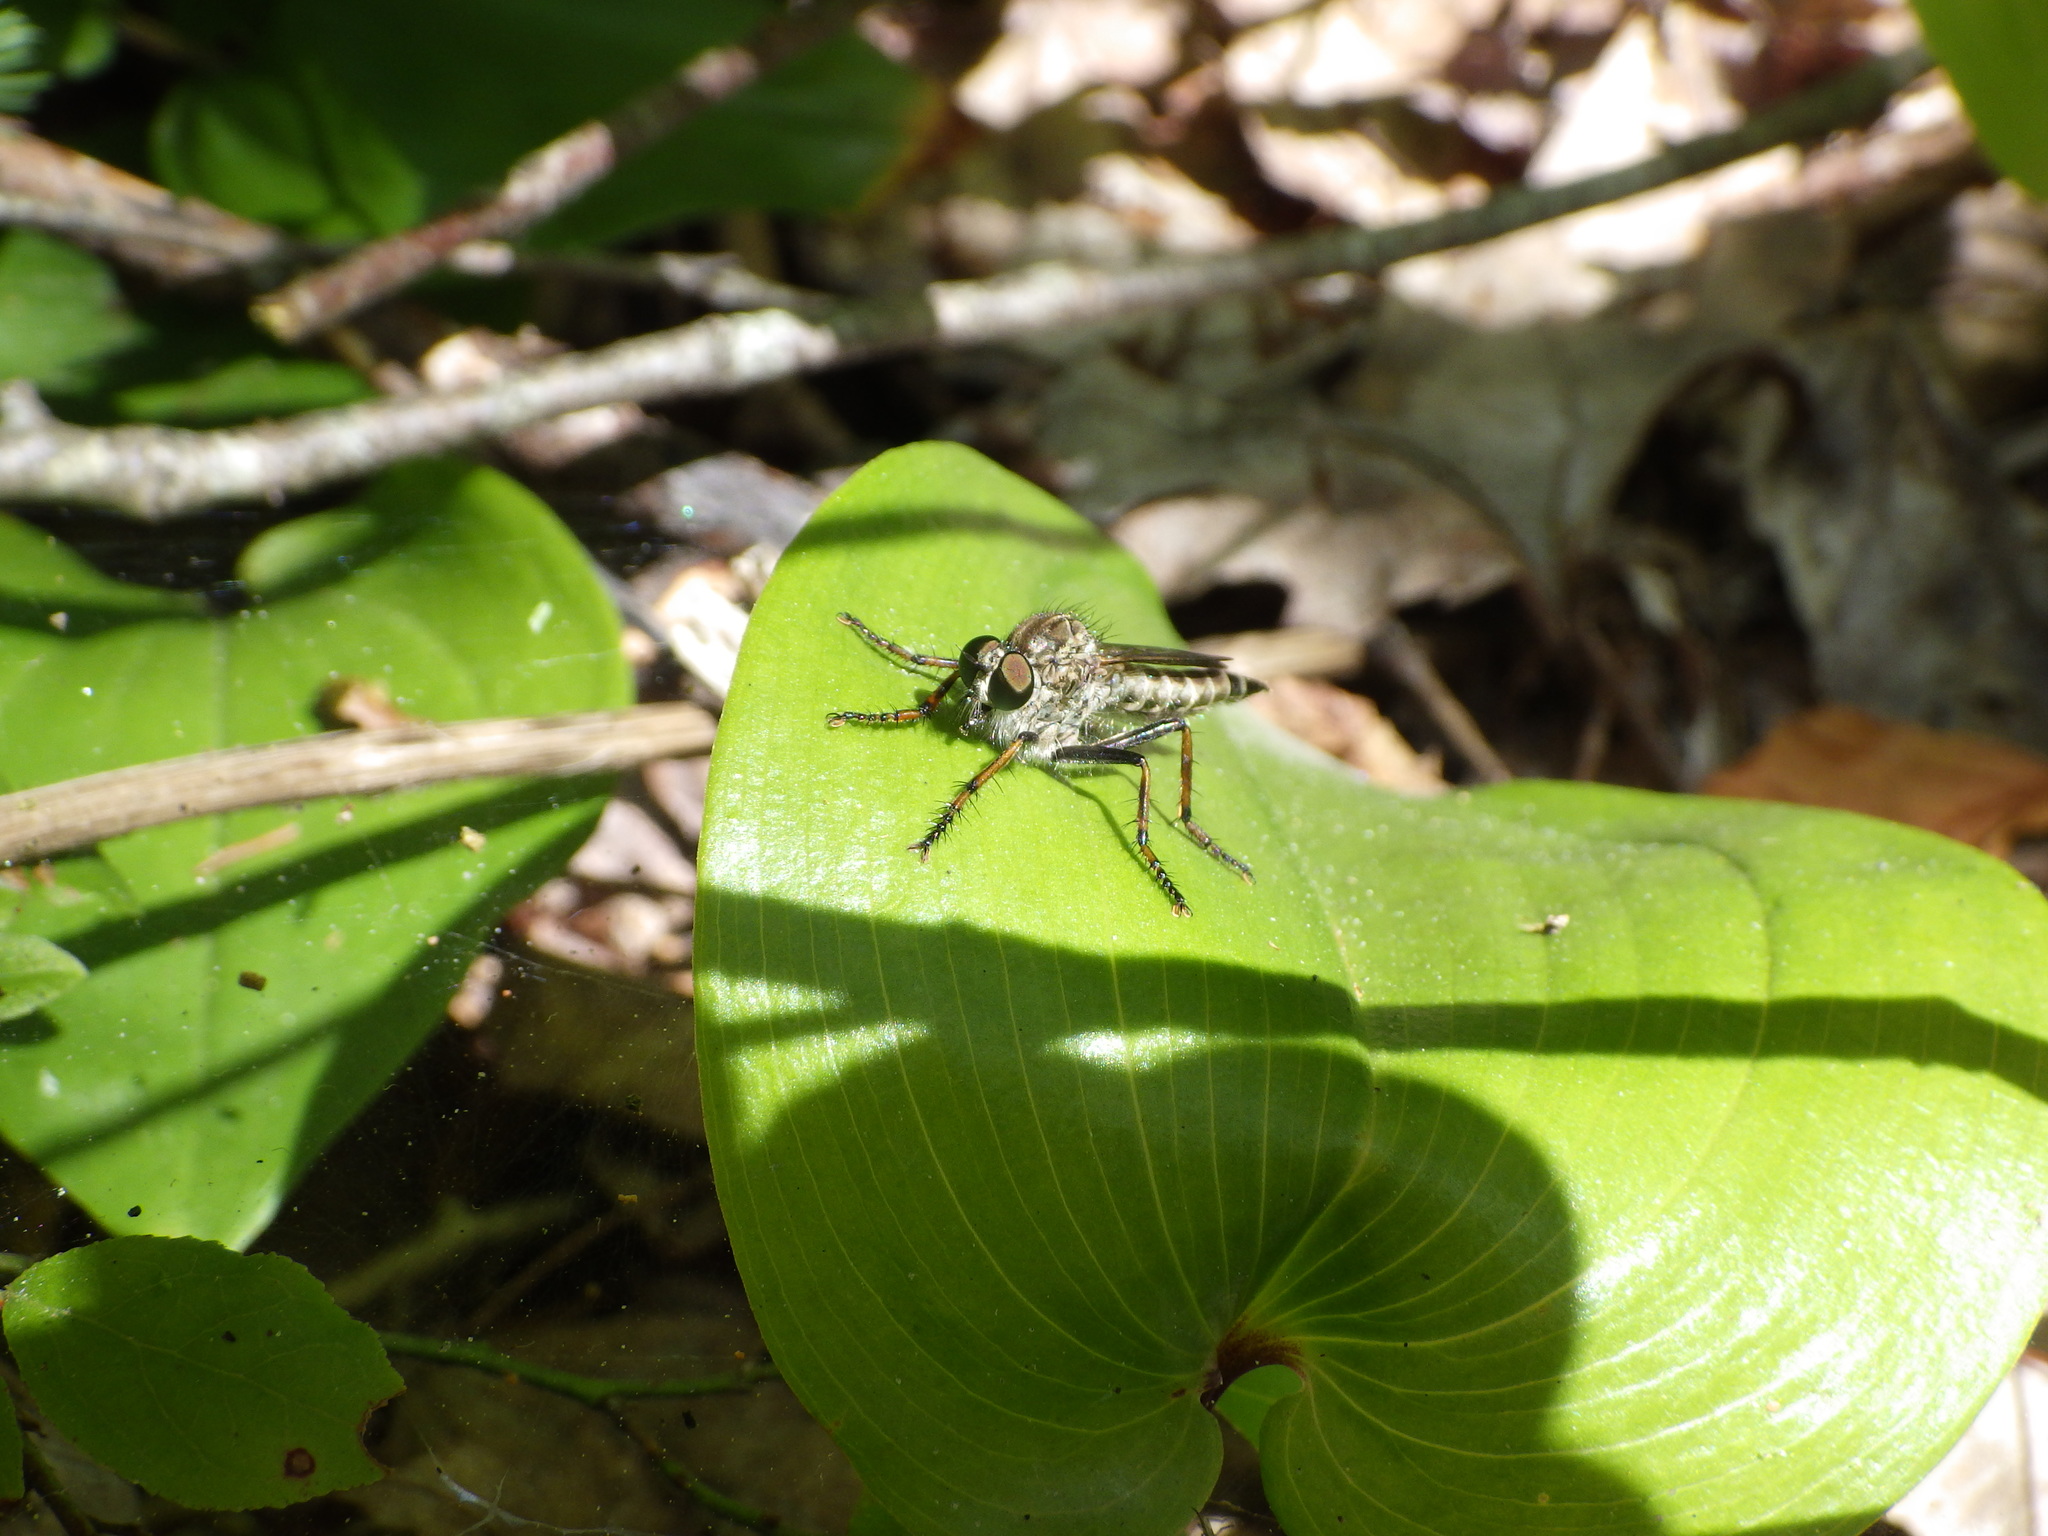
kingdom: Animalia
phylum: Arthropoda
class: Insecta
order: Diptera
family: Asilidae
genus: Machimus
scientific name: Machimus sadyates
